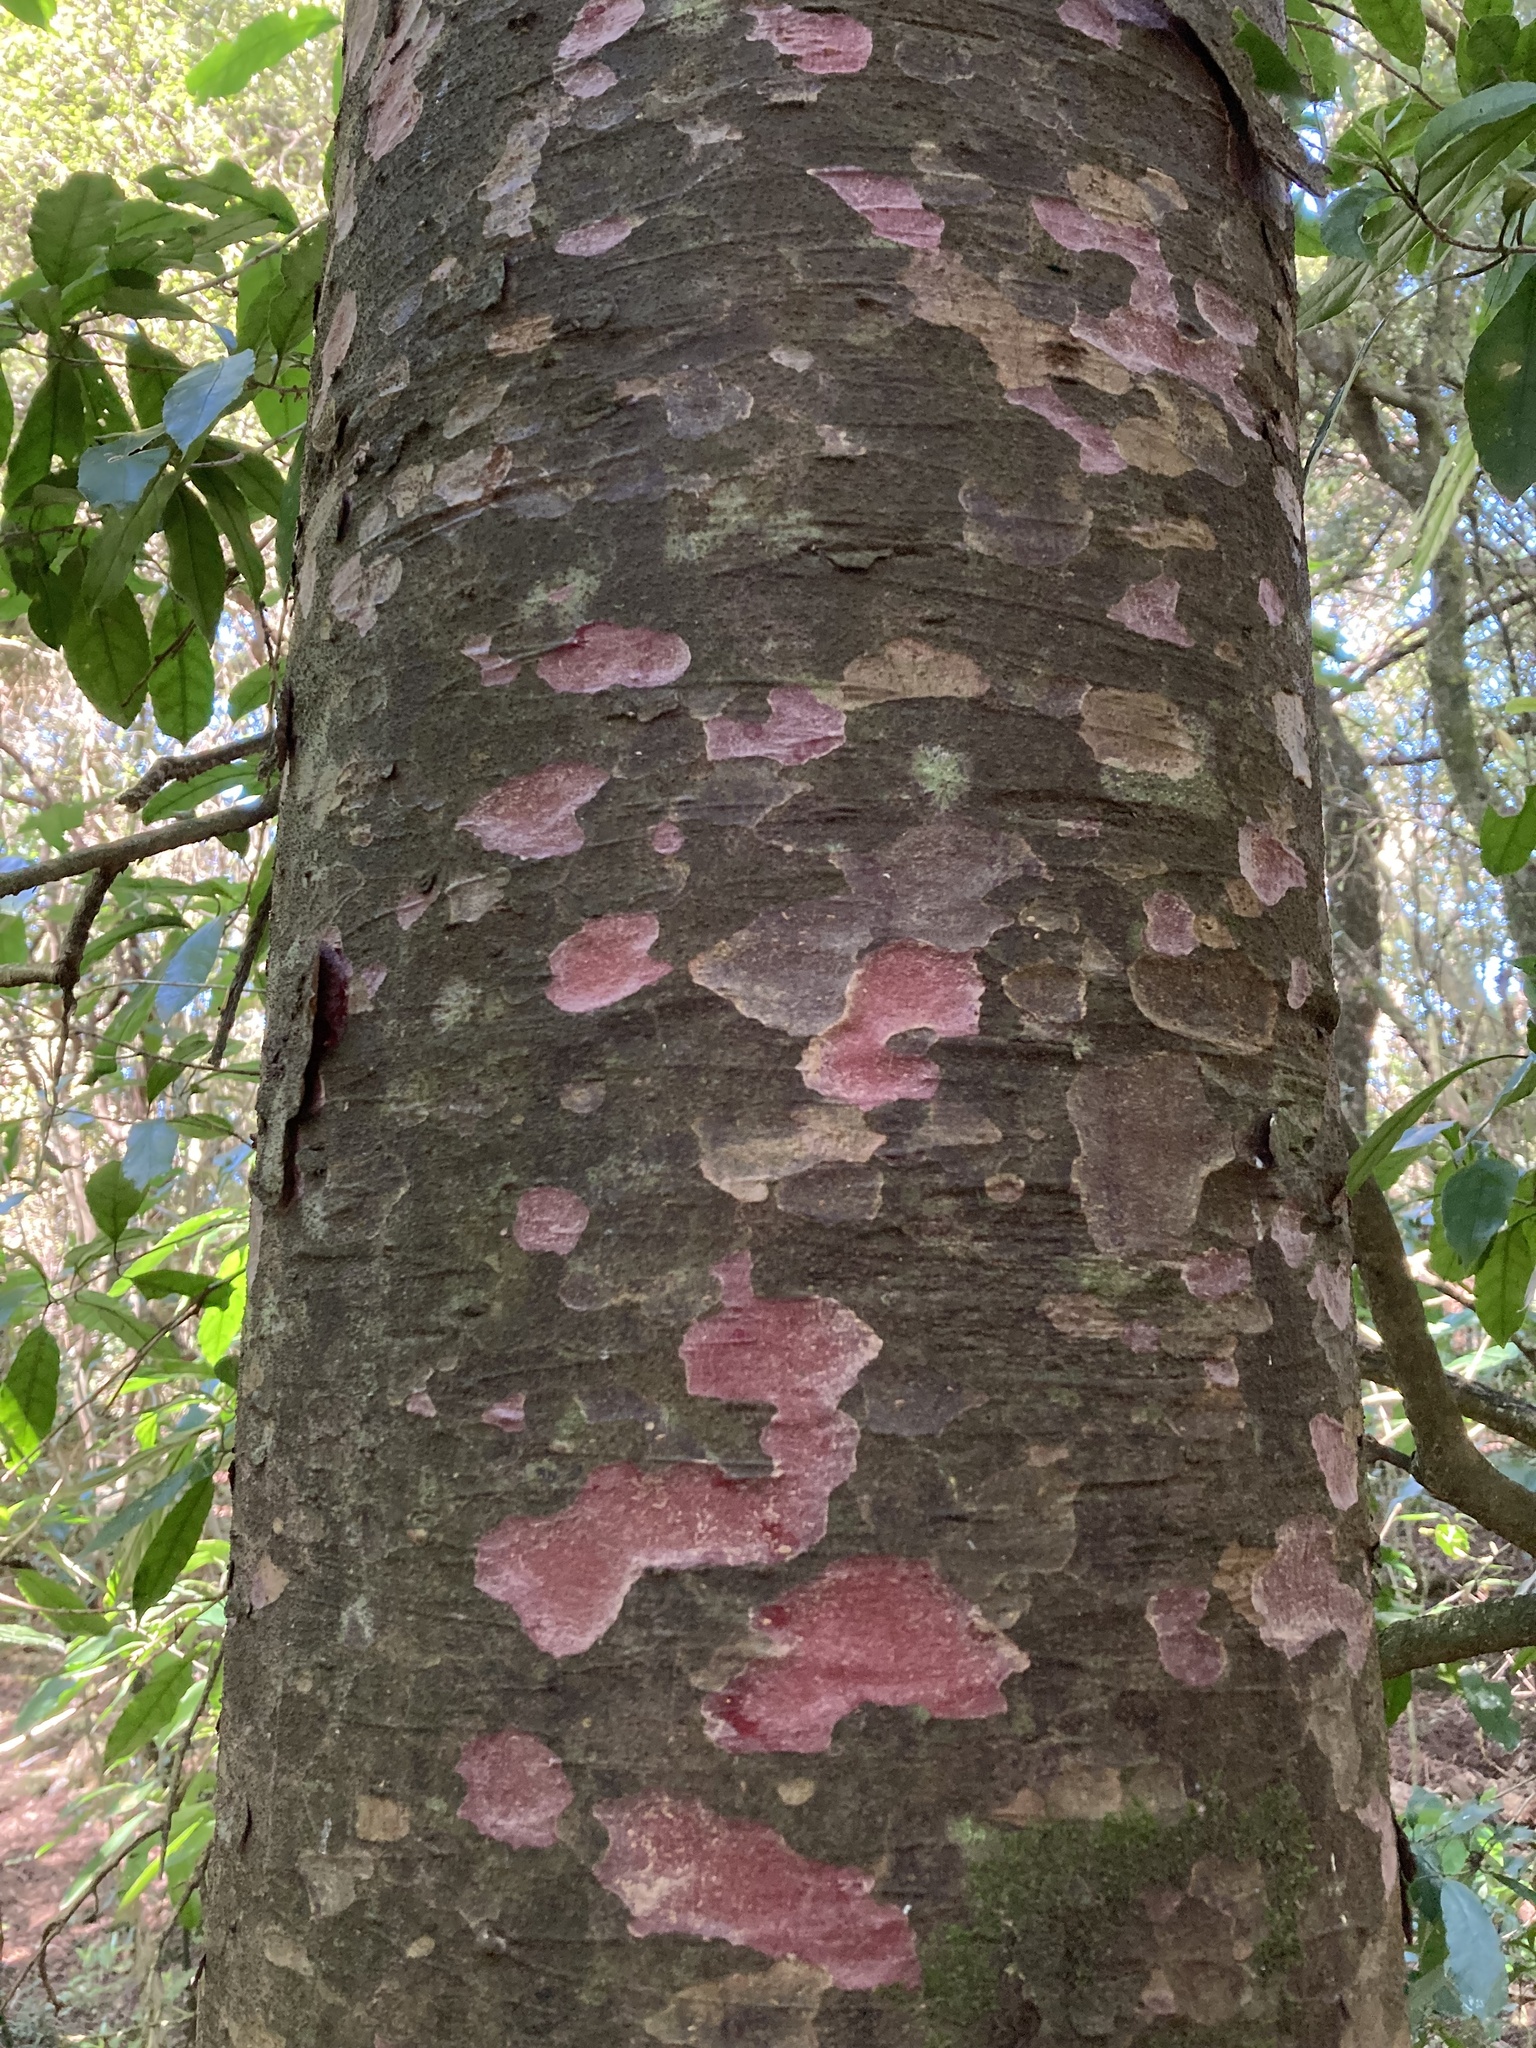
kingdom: Plantae
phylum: Tracheophyta
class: Pinopsida
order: Pinales
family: Podocarpaceae
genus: Prumnopitys
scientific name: Prumnopitys taxifolia
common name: Matai
